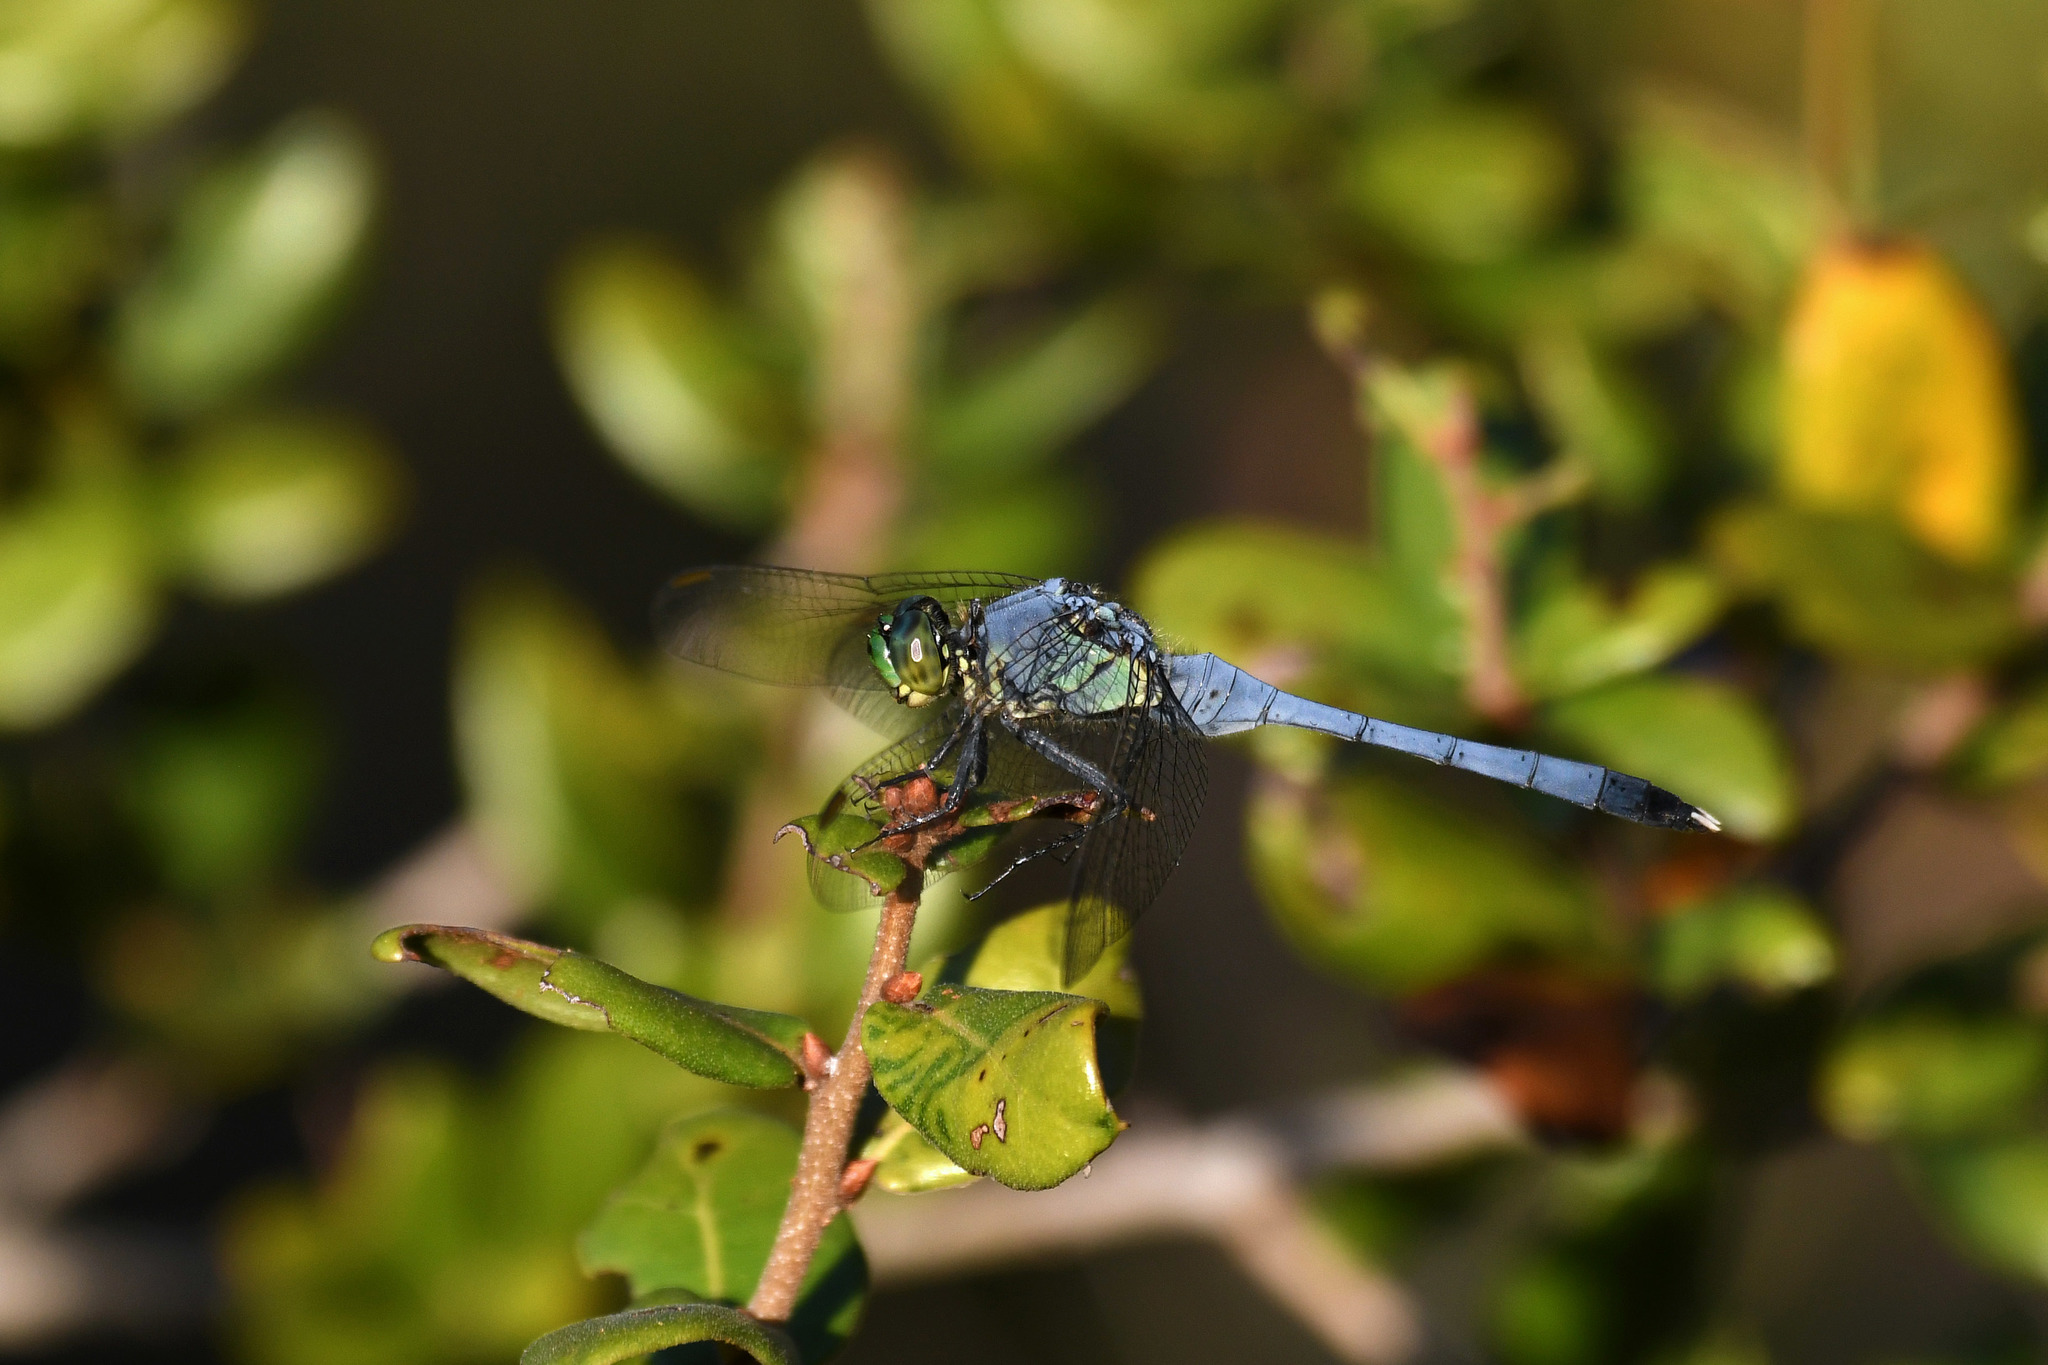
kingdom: Animalia
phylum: Arthropoda
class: Insecta
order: Odonata
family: Libellulidae
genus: Erythemis
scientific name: Erythemis simplicicollis
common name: Eastern pondhawk
